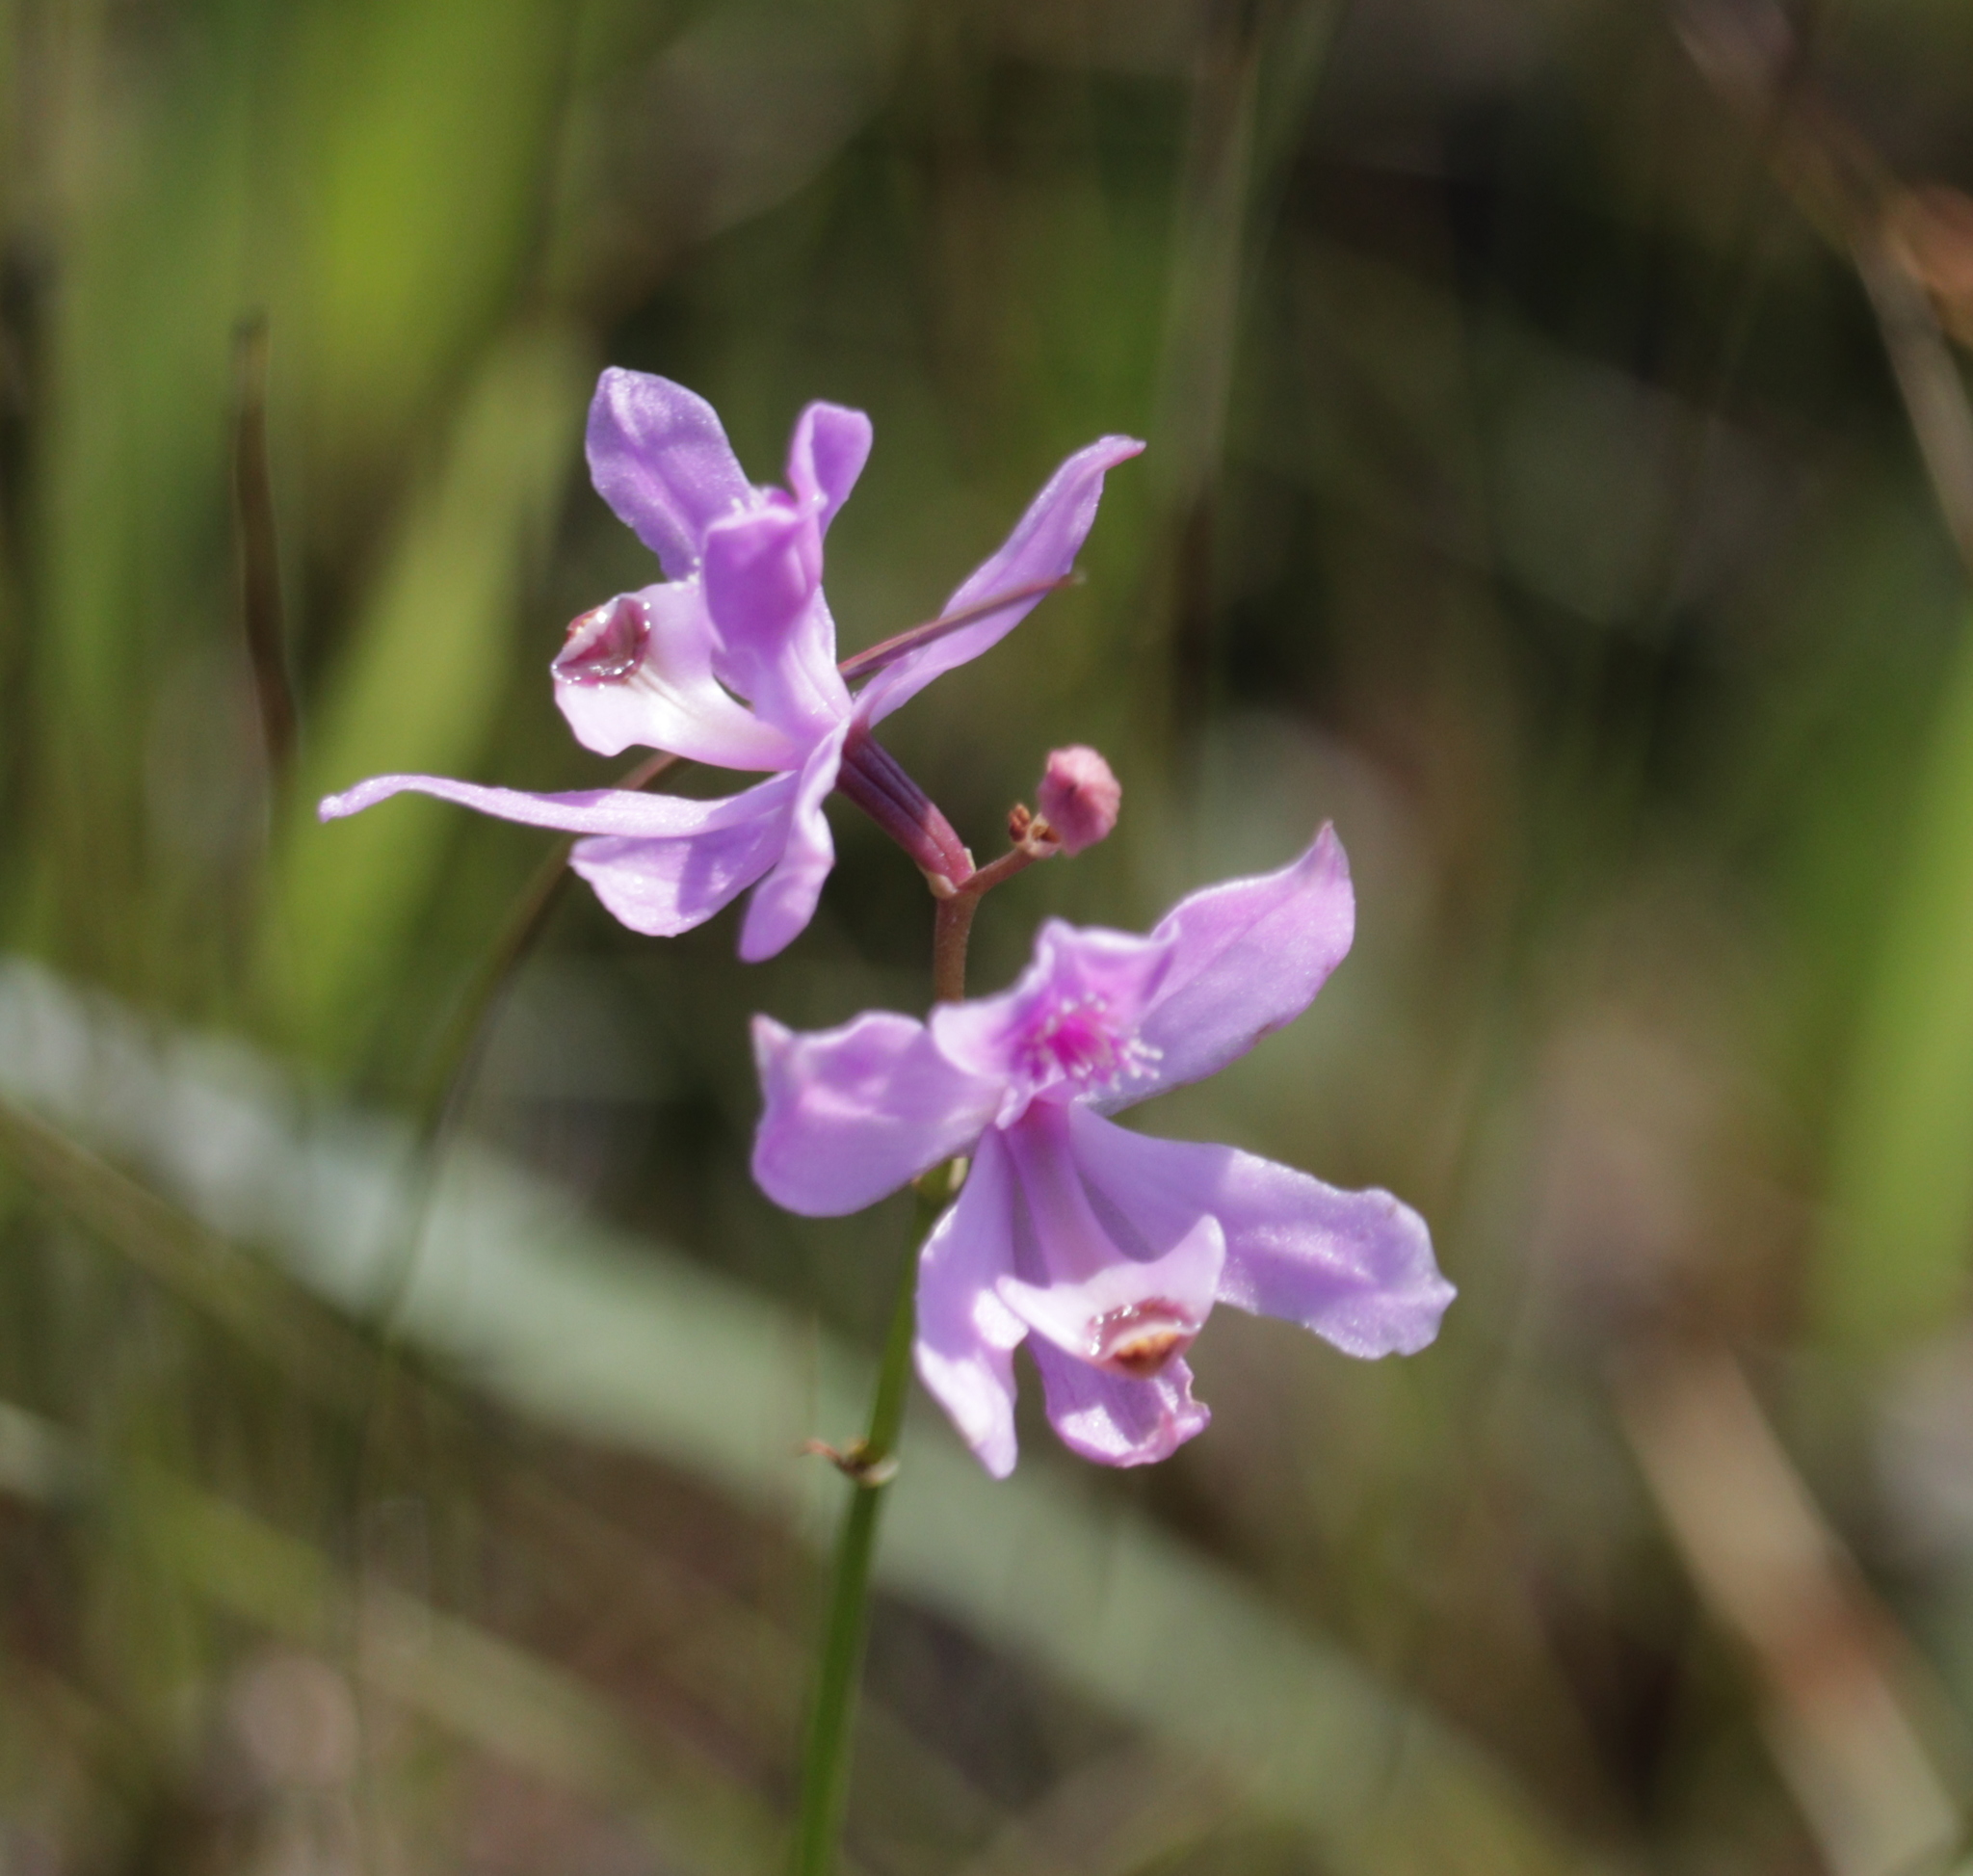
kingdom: Plantae
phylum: Tracheophyta
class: Liliopsida
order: Asparagales
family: Orchidaceae
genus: Calopogon
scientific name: Calopogon pallidus
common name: Pale grasspink
